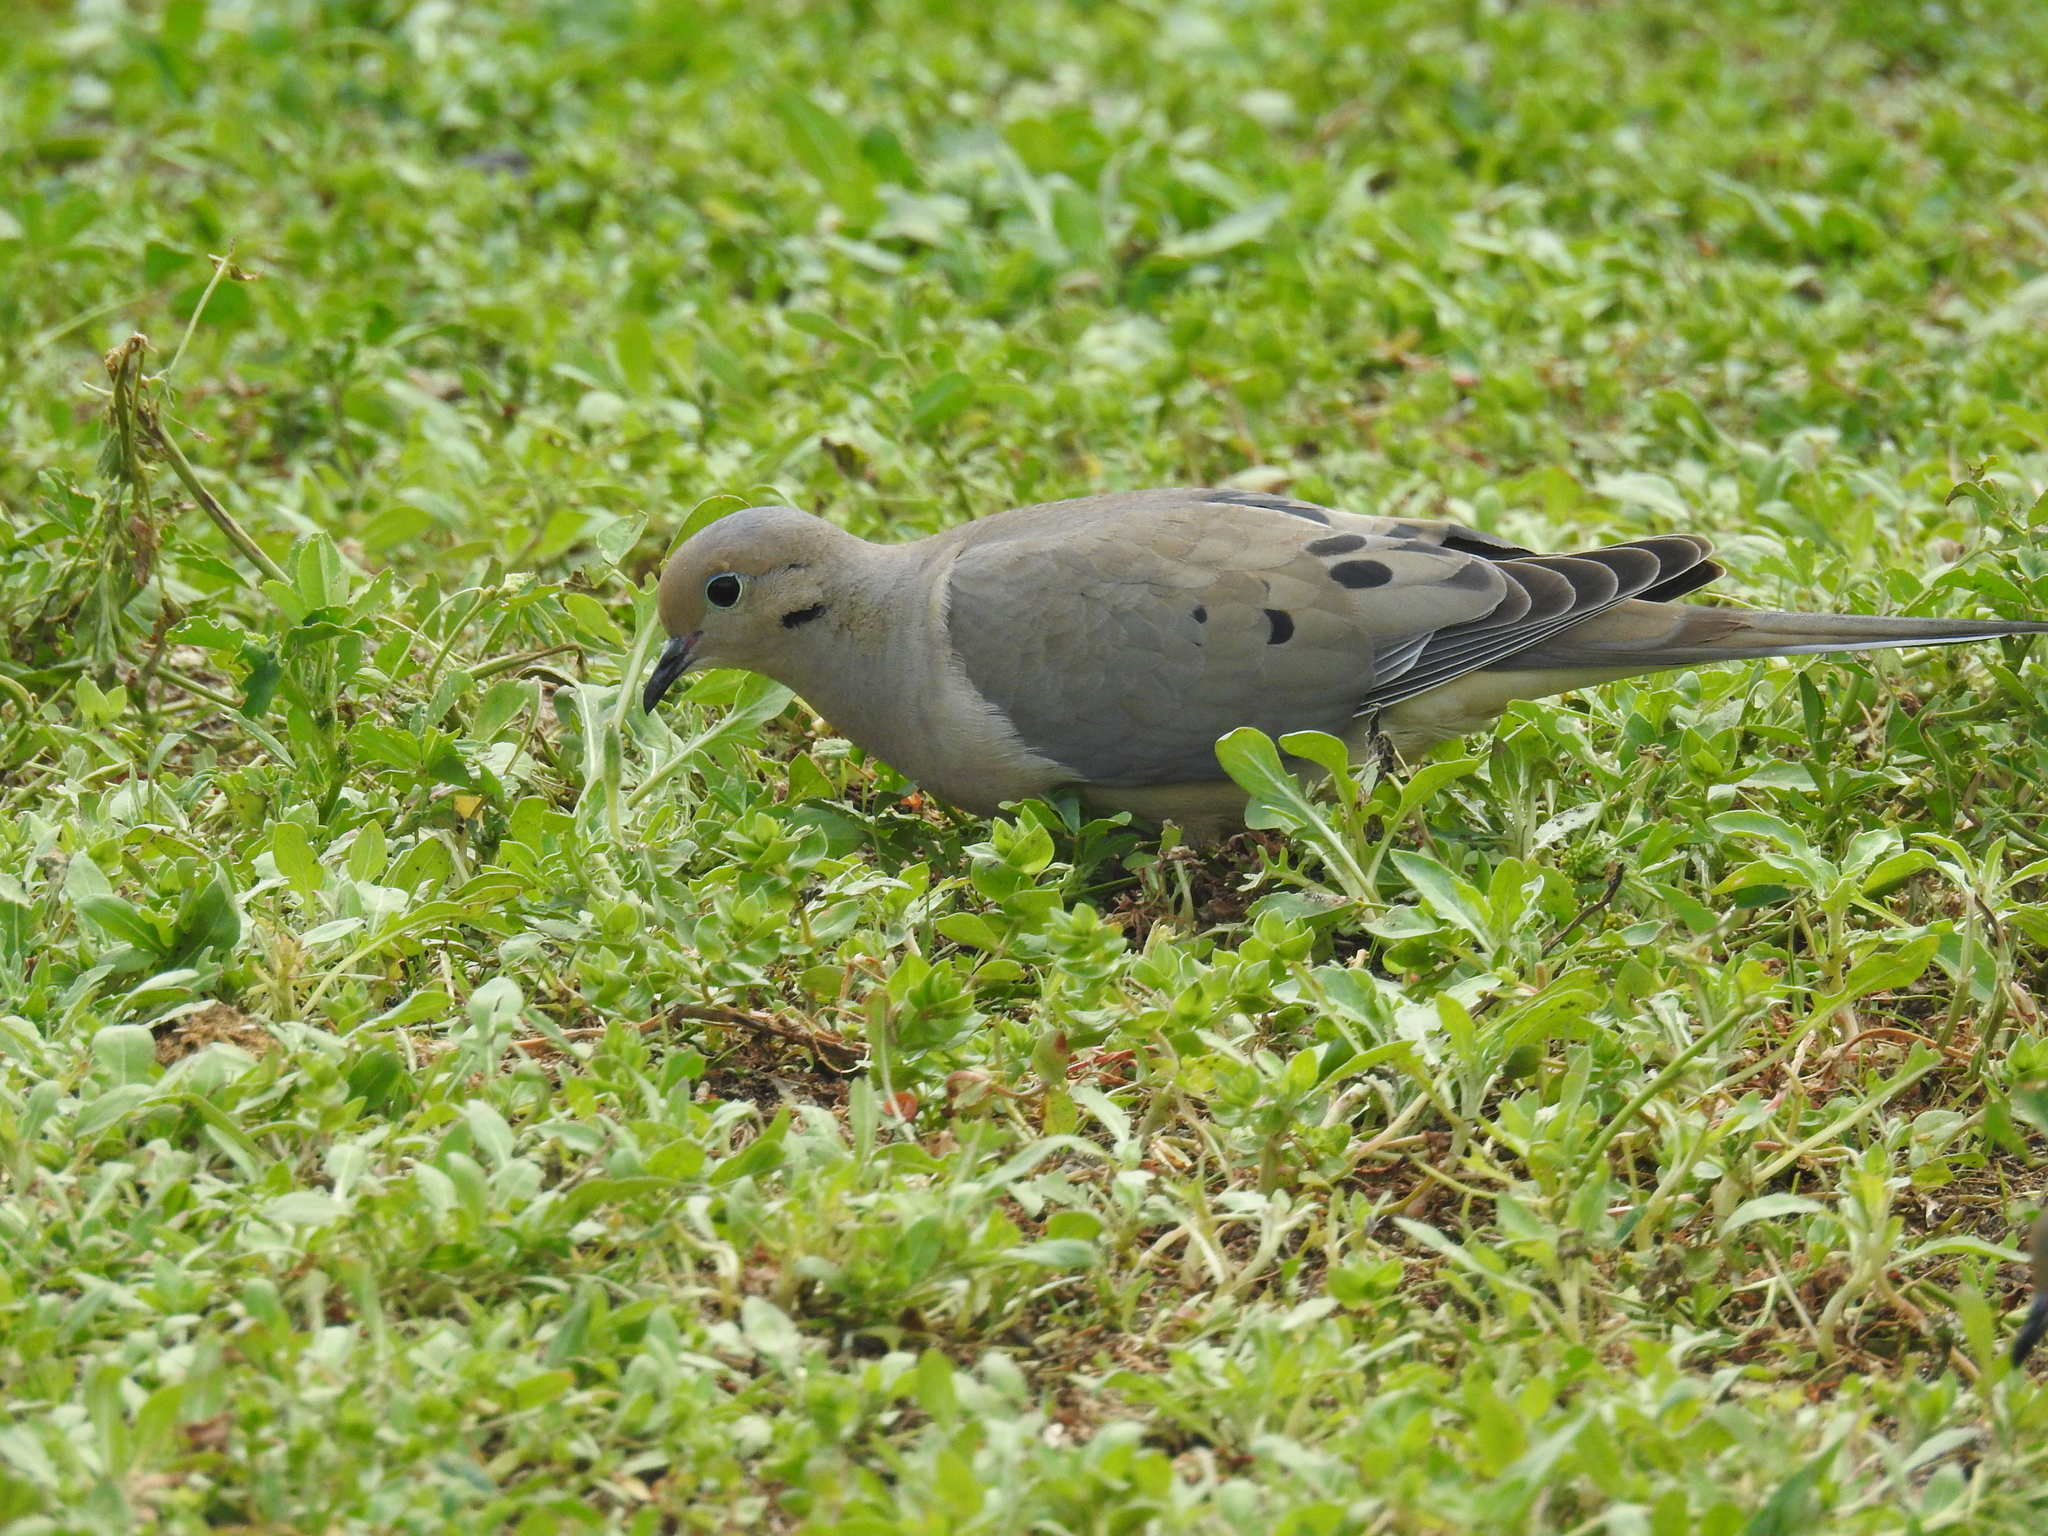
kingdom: Animalia
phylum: Chordata
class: Aves
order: Columbiformes
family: Columbidae
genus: Zenaida
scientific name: Zenaida macroura
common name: Mourning dove
